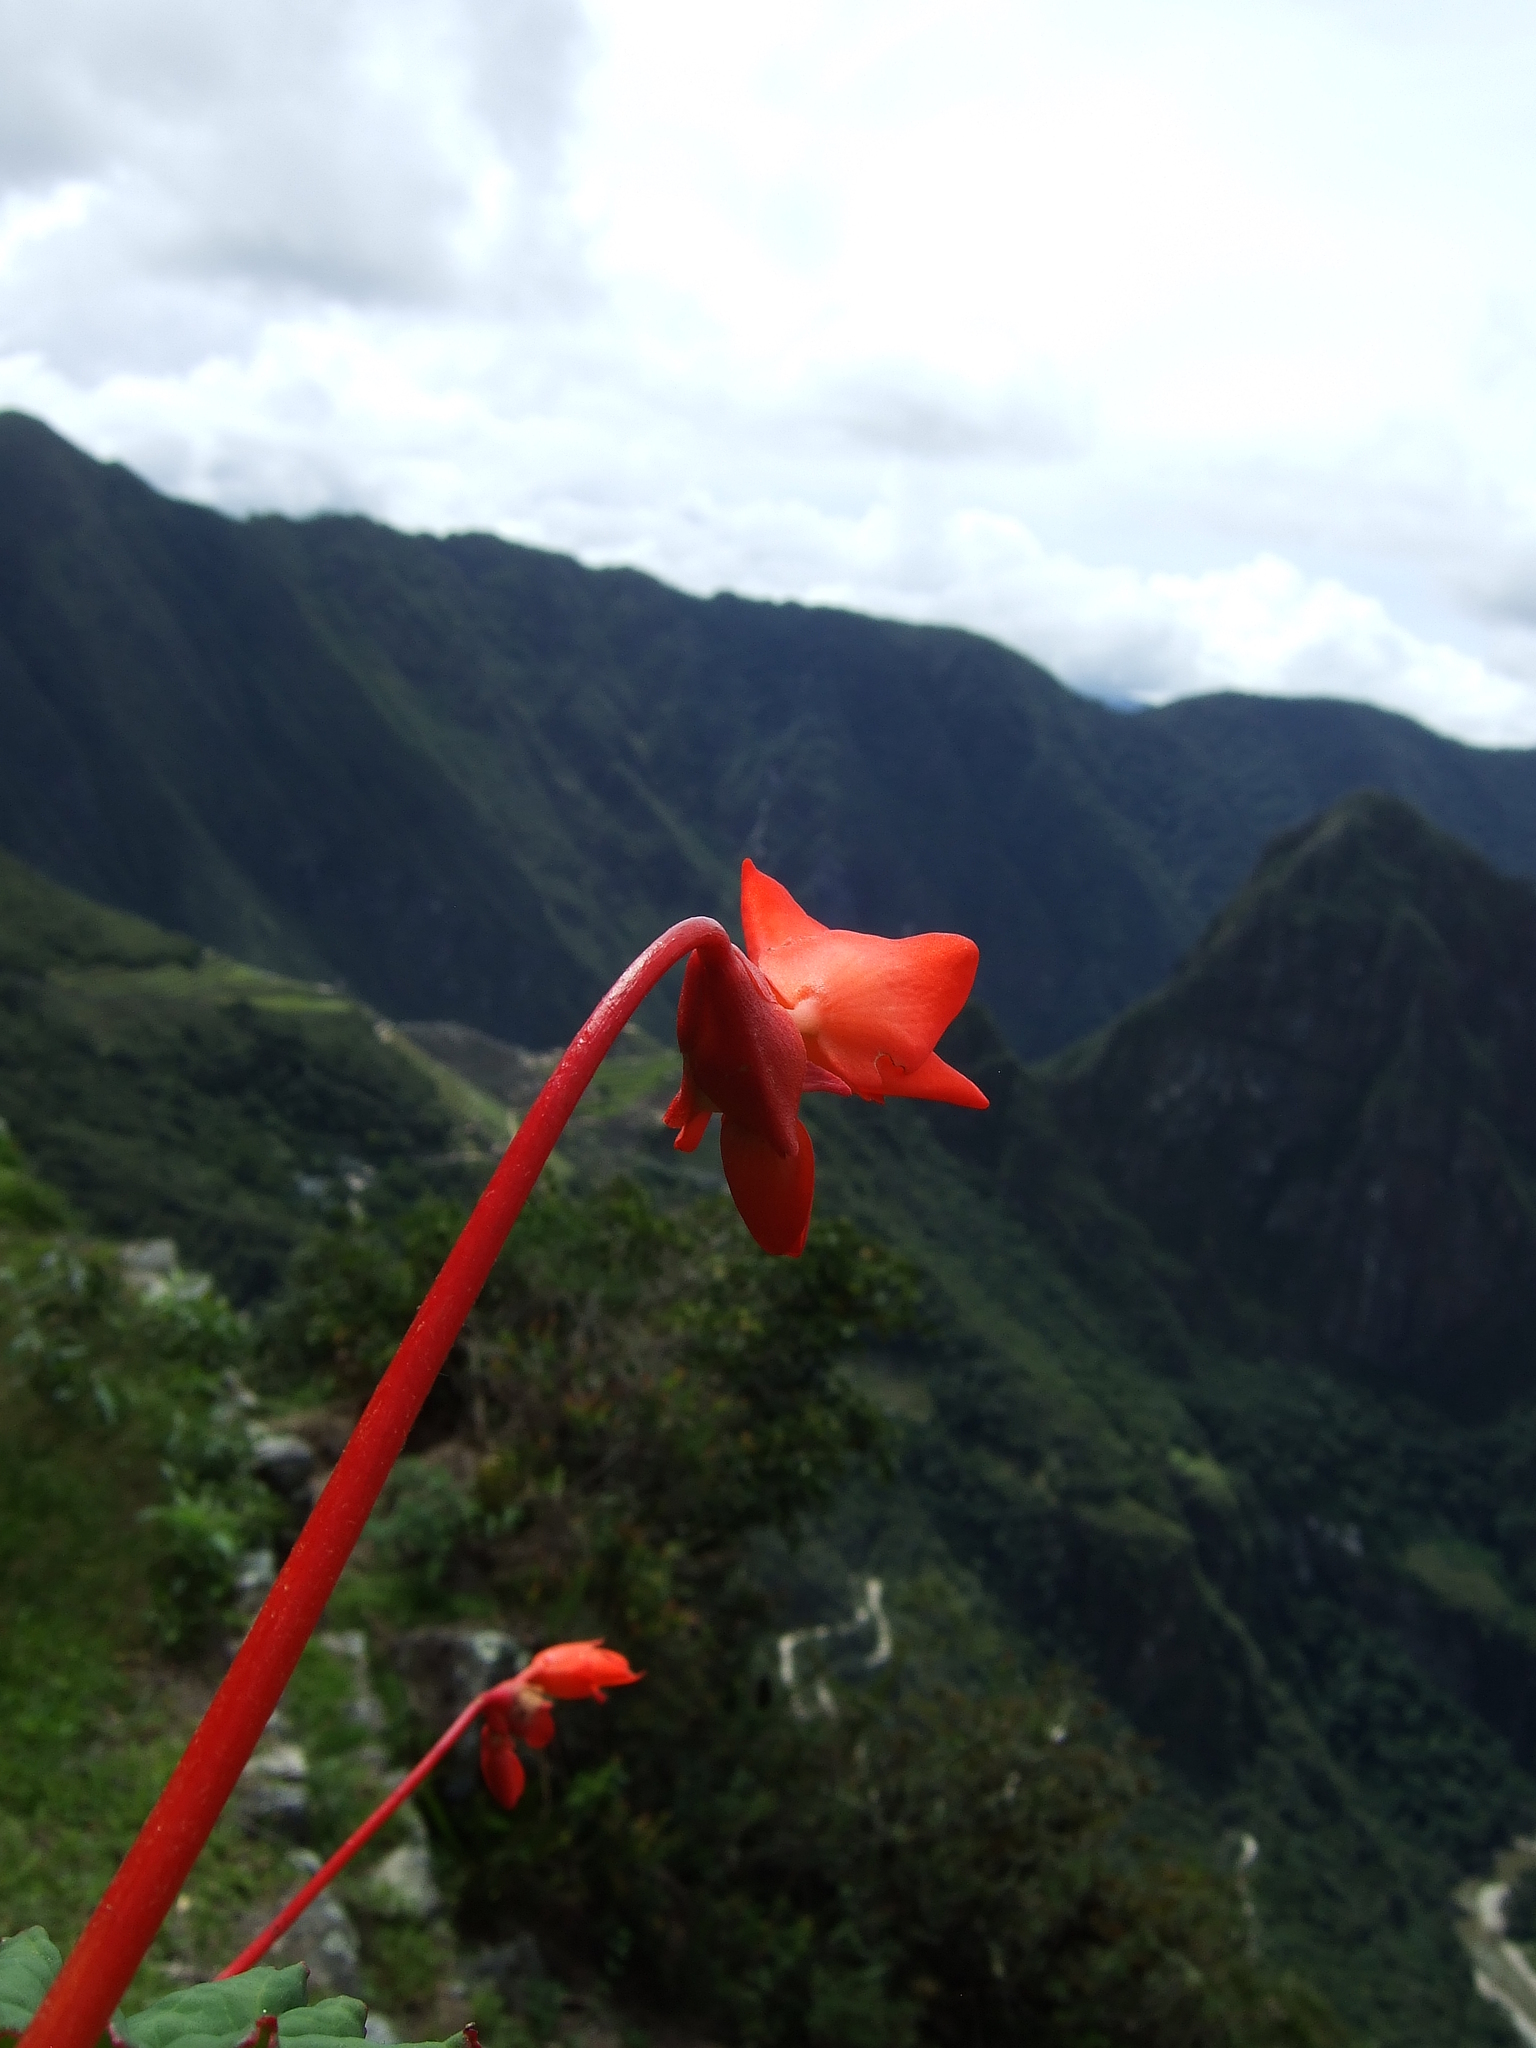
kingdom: Plantae
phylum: Tracheophyta
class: Magnoliopsida
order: Cucurbitales
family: Begoniaceae
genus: Begonia
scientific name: Begonia veitchii
